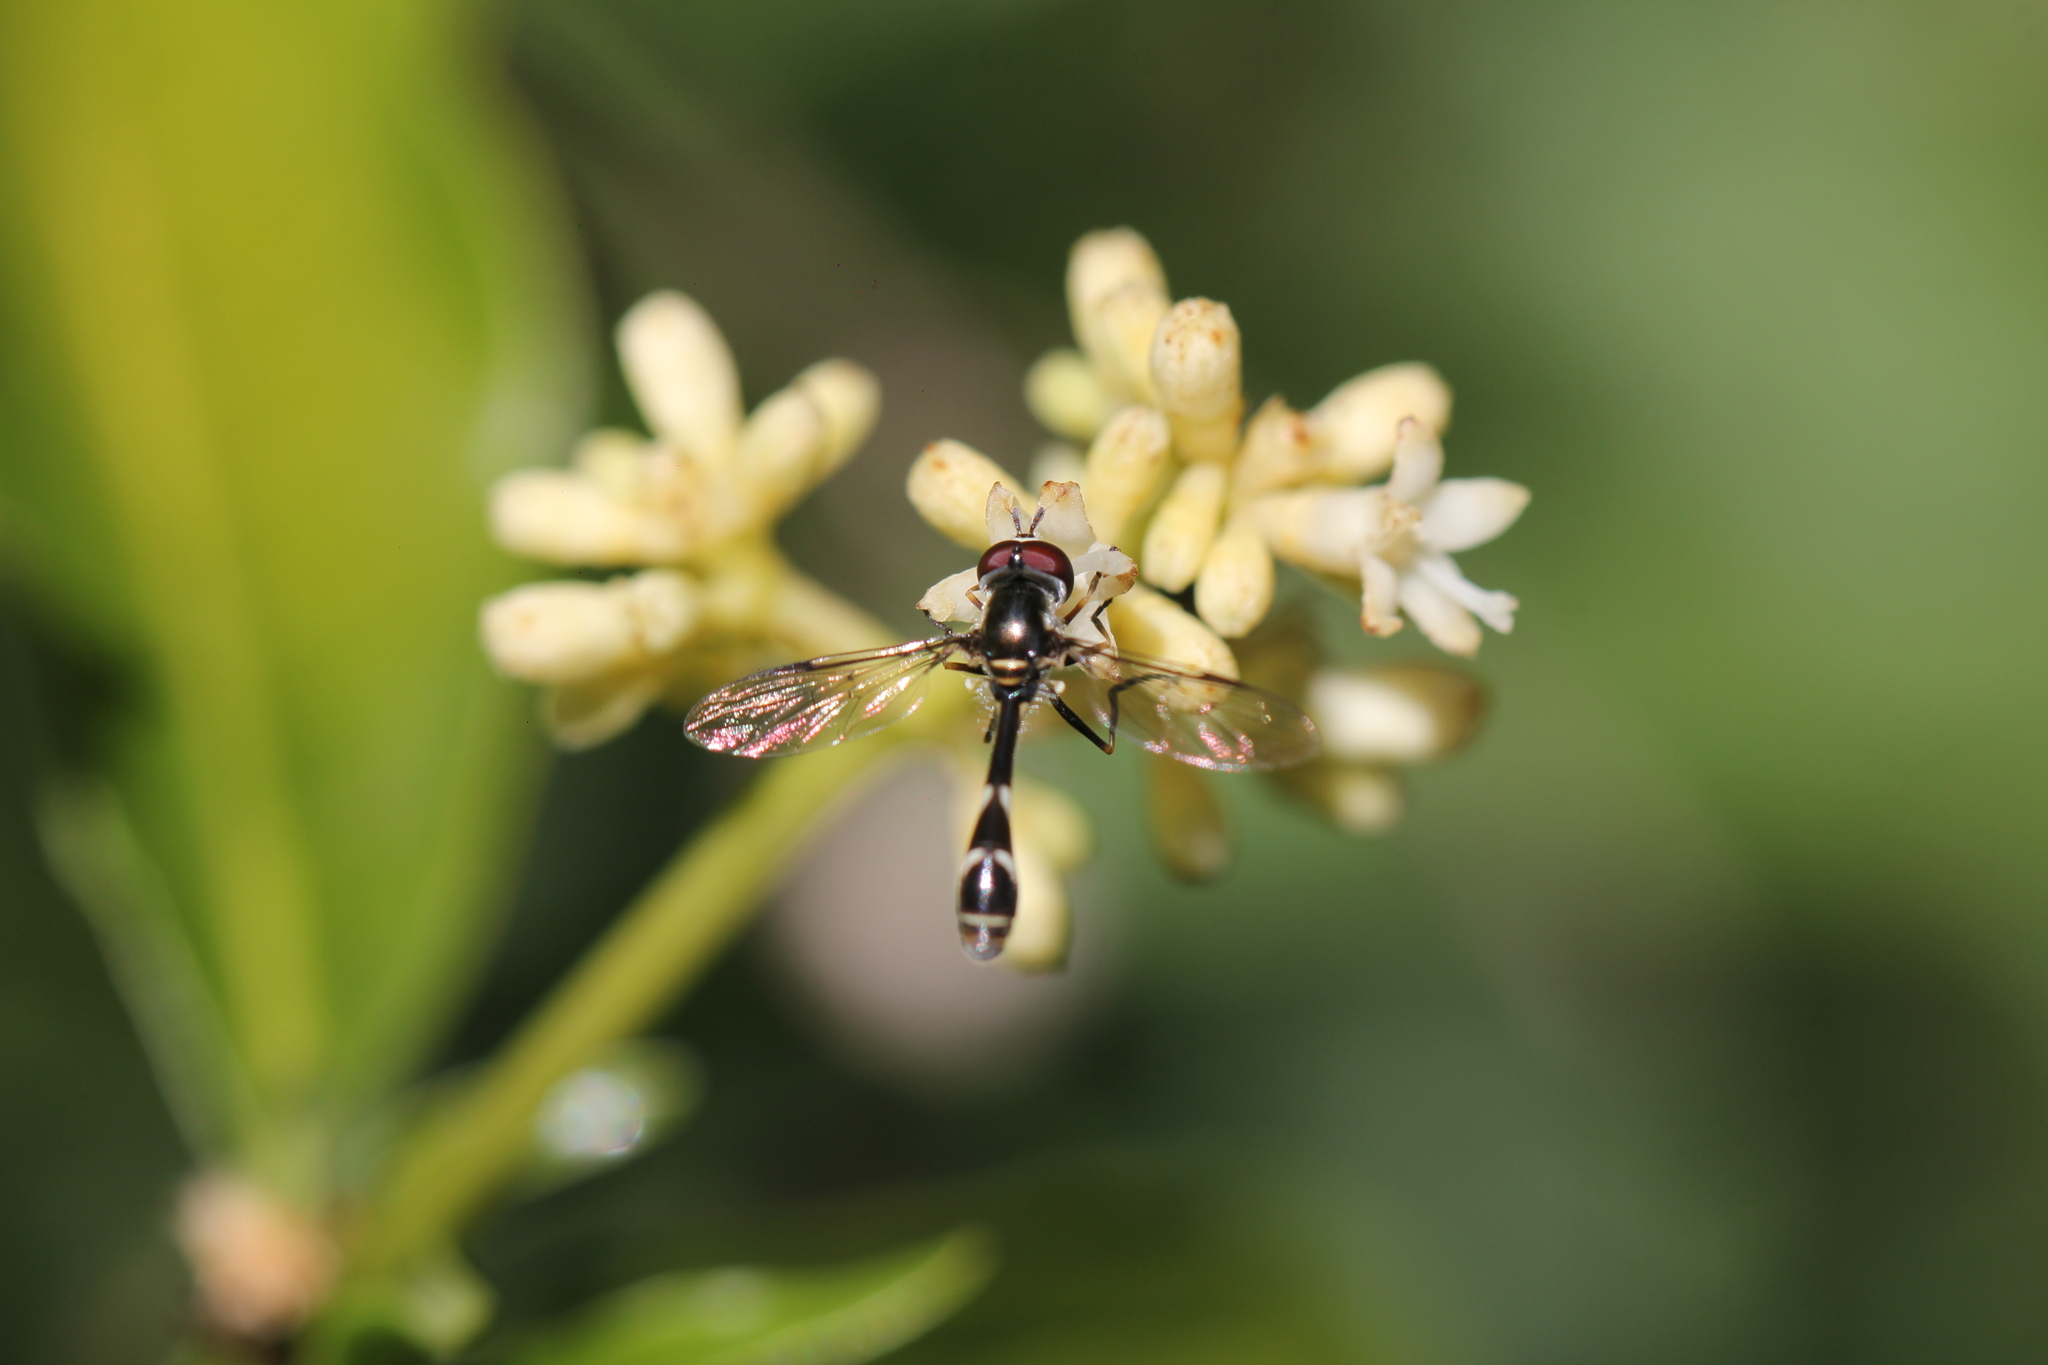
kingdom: Animalia
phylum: Arthropoda
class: Insecta
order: Diptera
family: Syrphidae
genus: Dioprosopa
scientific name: Dioprosopa clavatus
